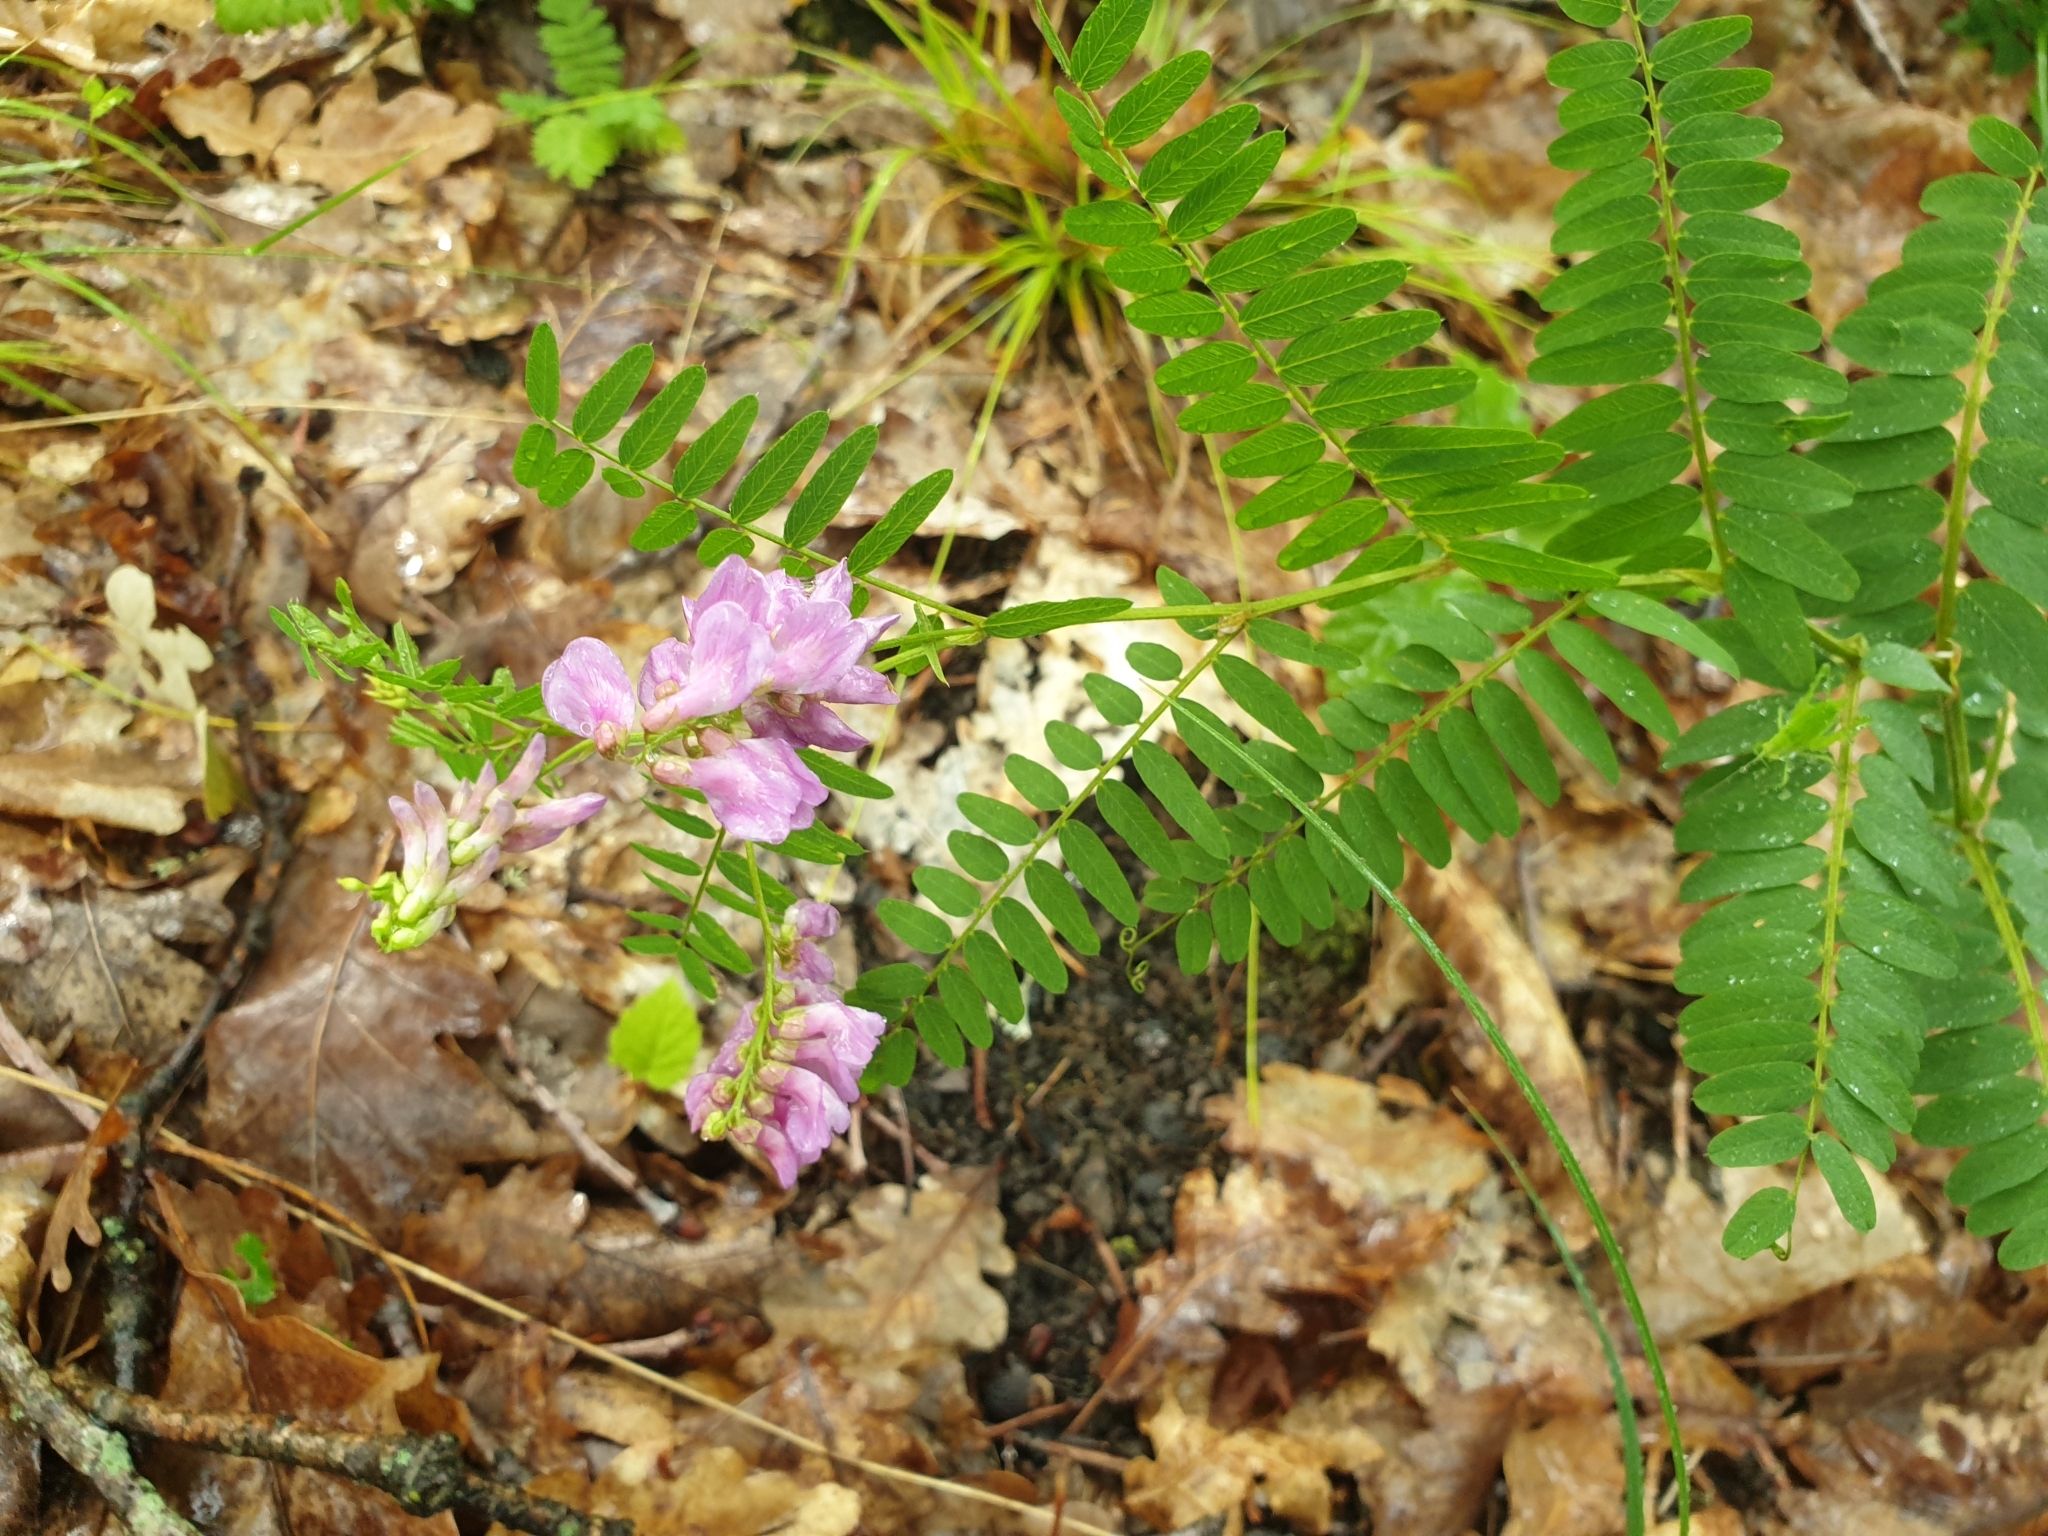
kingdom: Plantae
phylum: Tracheophyta
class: Magnoliopsida
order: Fabales
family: Fabaceae
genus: Vicia
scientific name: Vicia cassubica
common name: Danzig vetch
